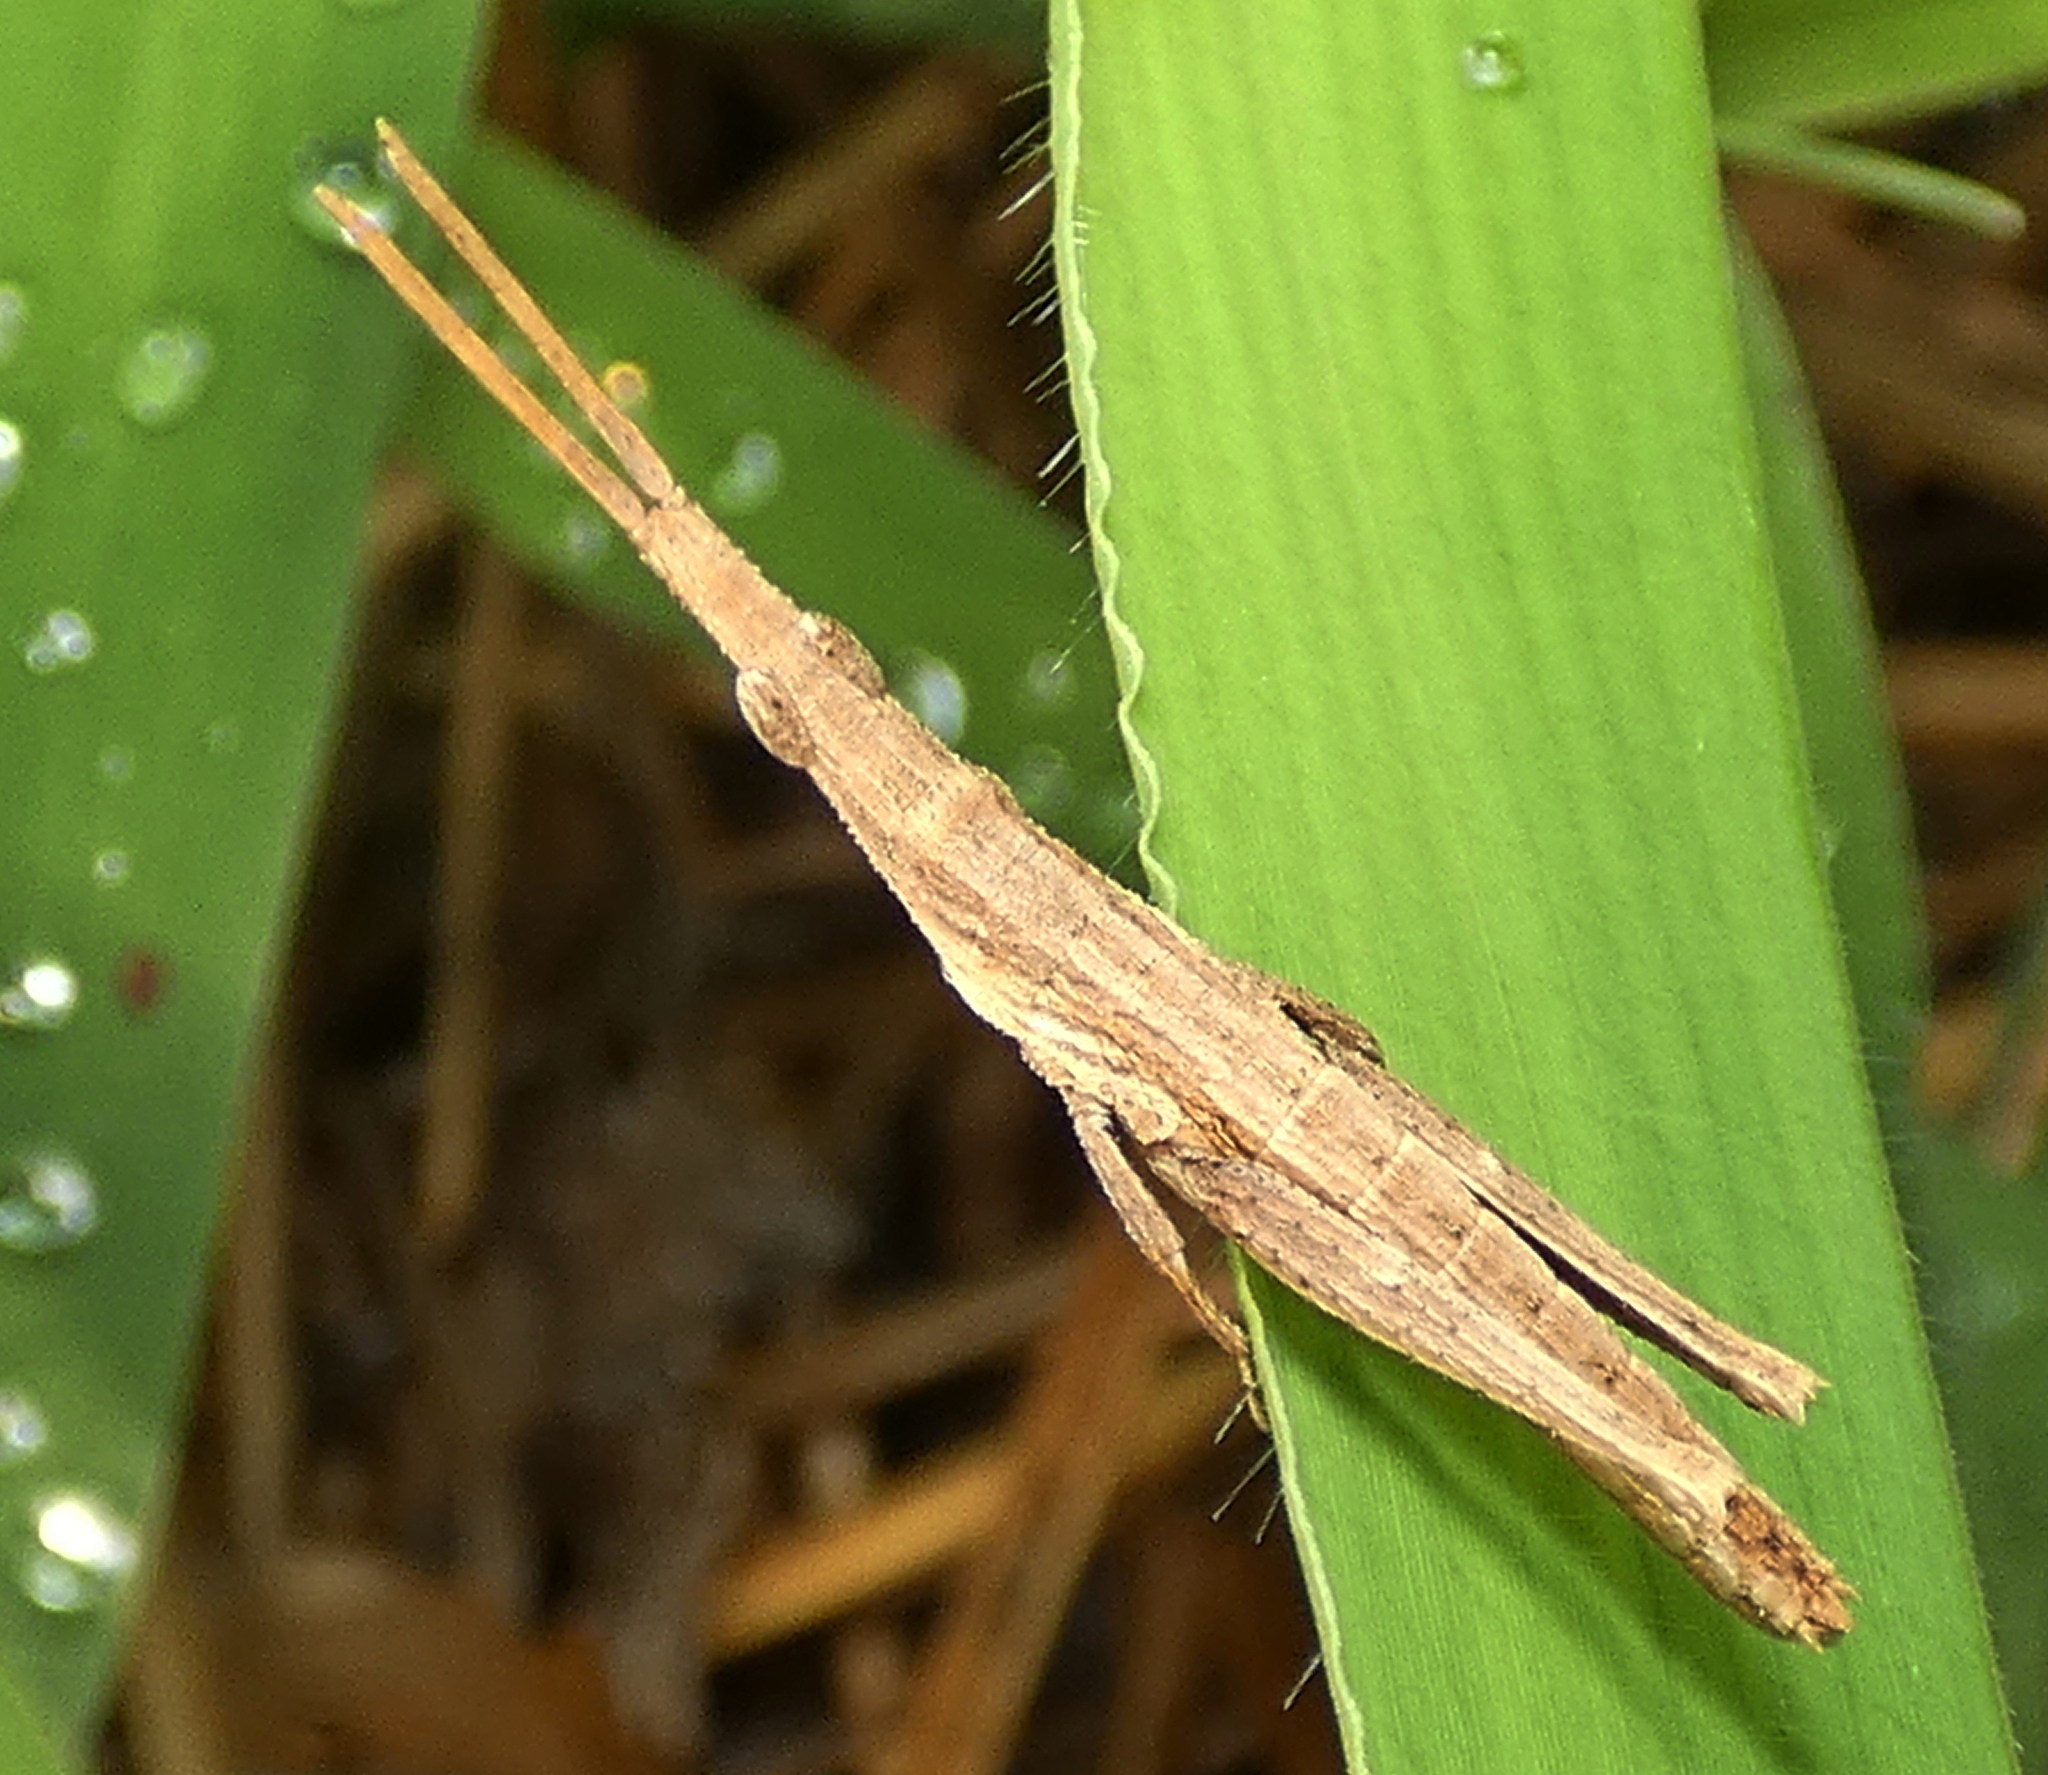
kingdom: Animalia
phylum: Arthropoda
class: Insecta
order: Orthoptera
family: Pyrgomorphidae
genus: Algete
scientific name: Algete brunneri
